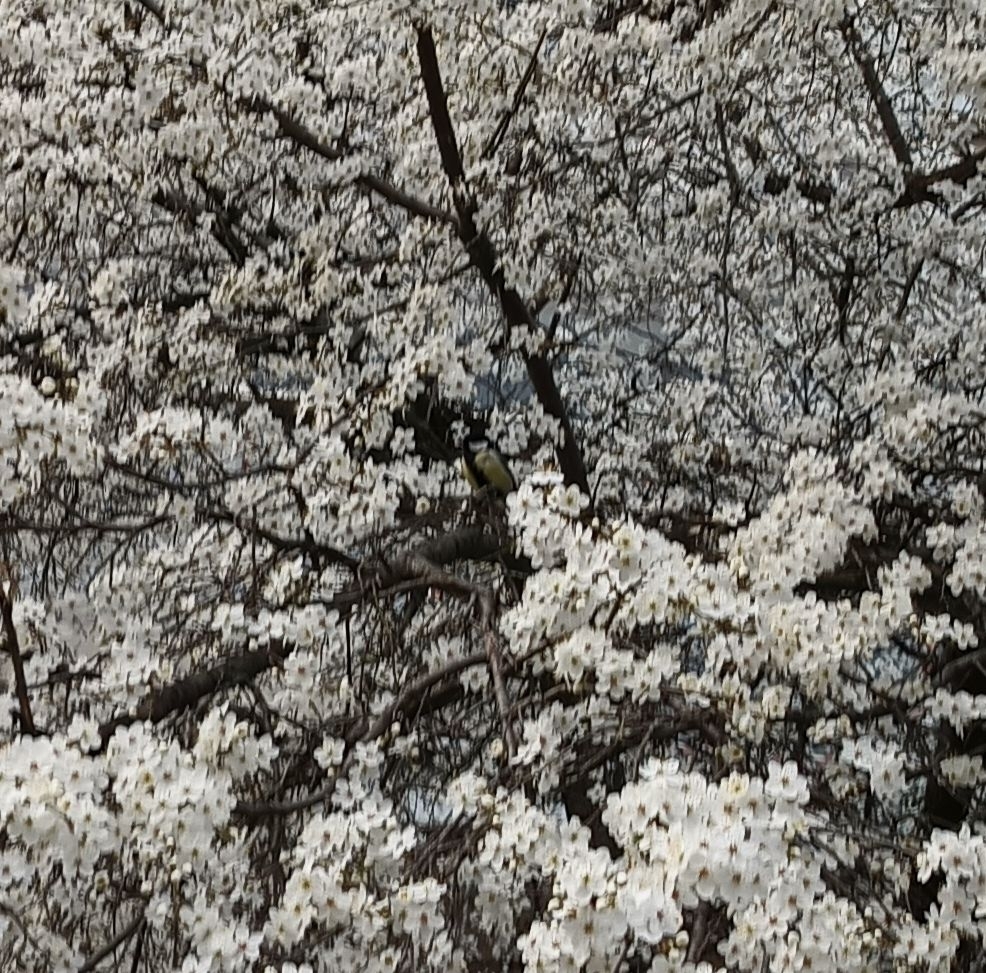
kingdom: Animalia
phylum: Chordata
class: Aves
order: Passeriformes
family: Paridae
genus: Parus
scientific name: Parus major
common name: Great tit
